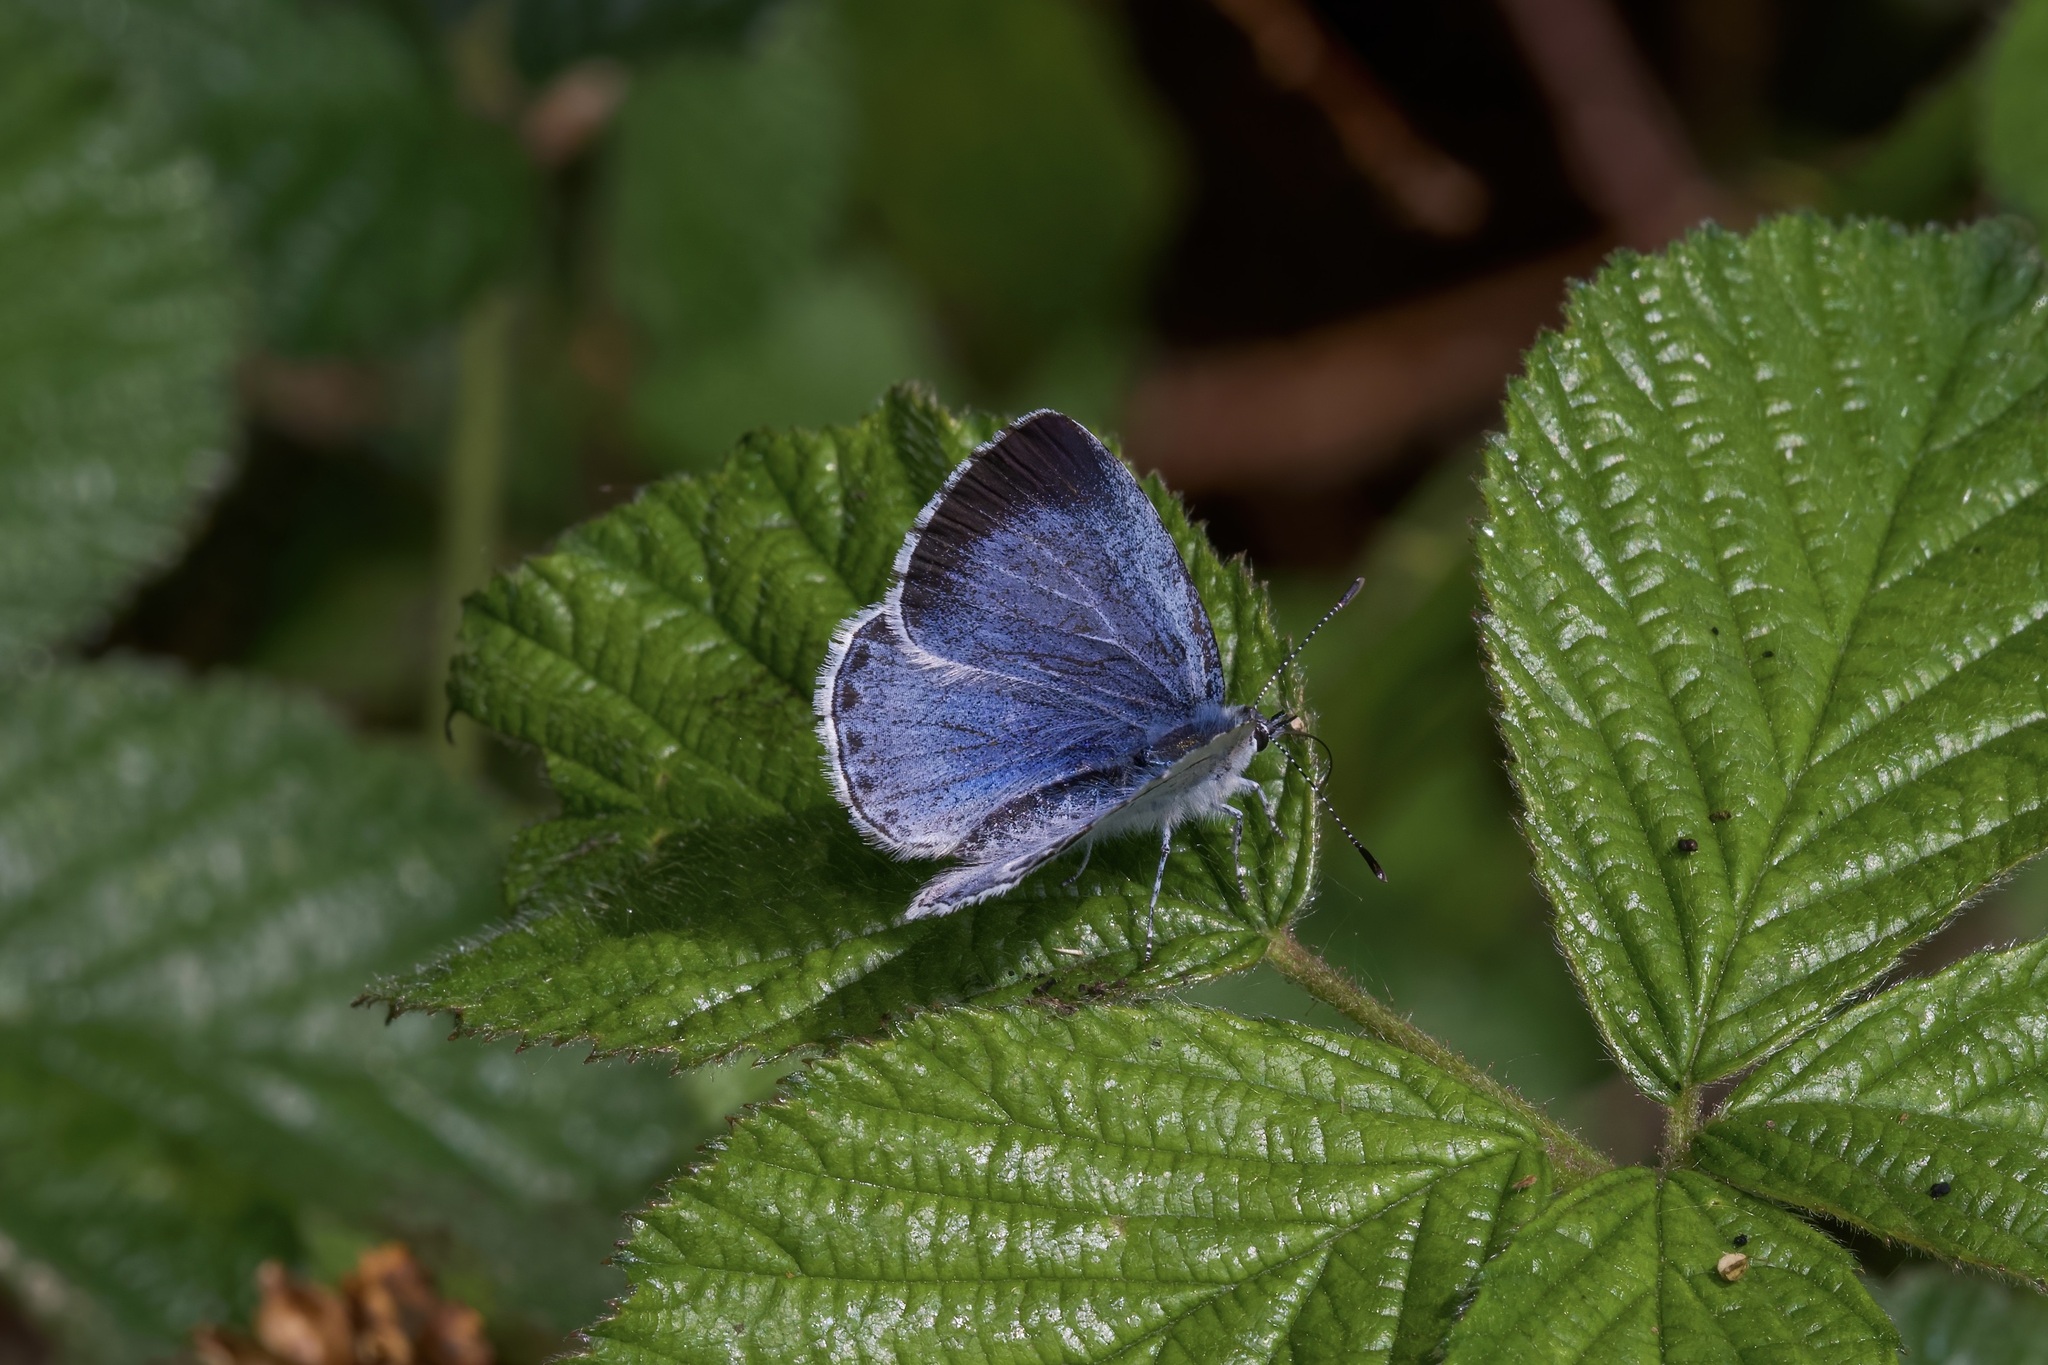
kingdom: Animalia
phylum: Arthropoda
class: Insecta
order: Lepidoptera
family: Lycaenidae
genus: Celastrina
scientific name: Celastrina argiolus
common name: Holly blue
